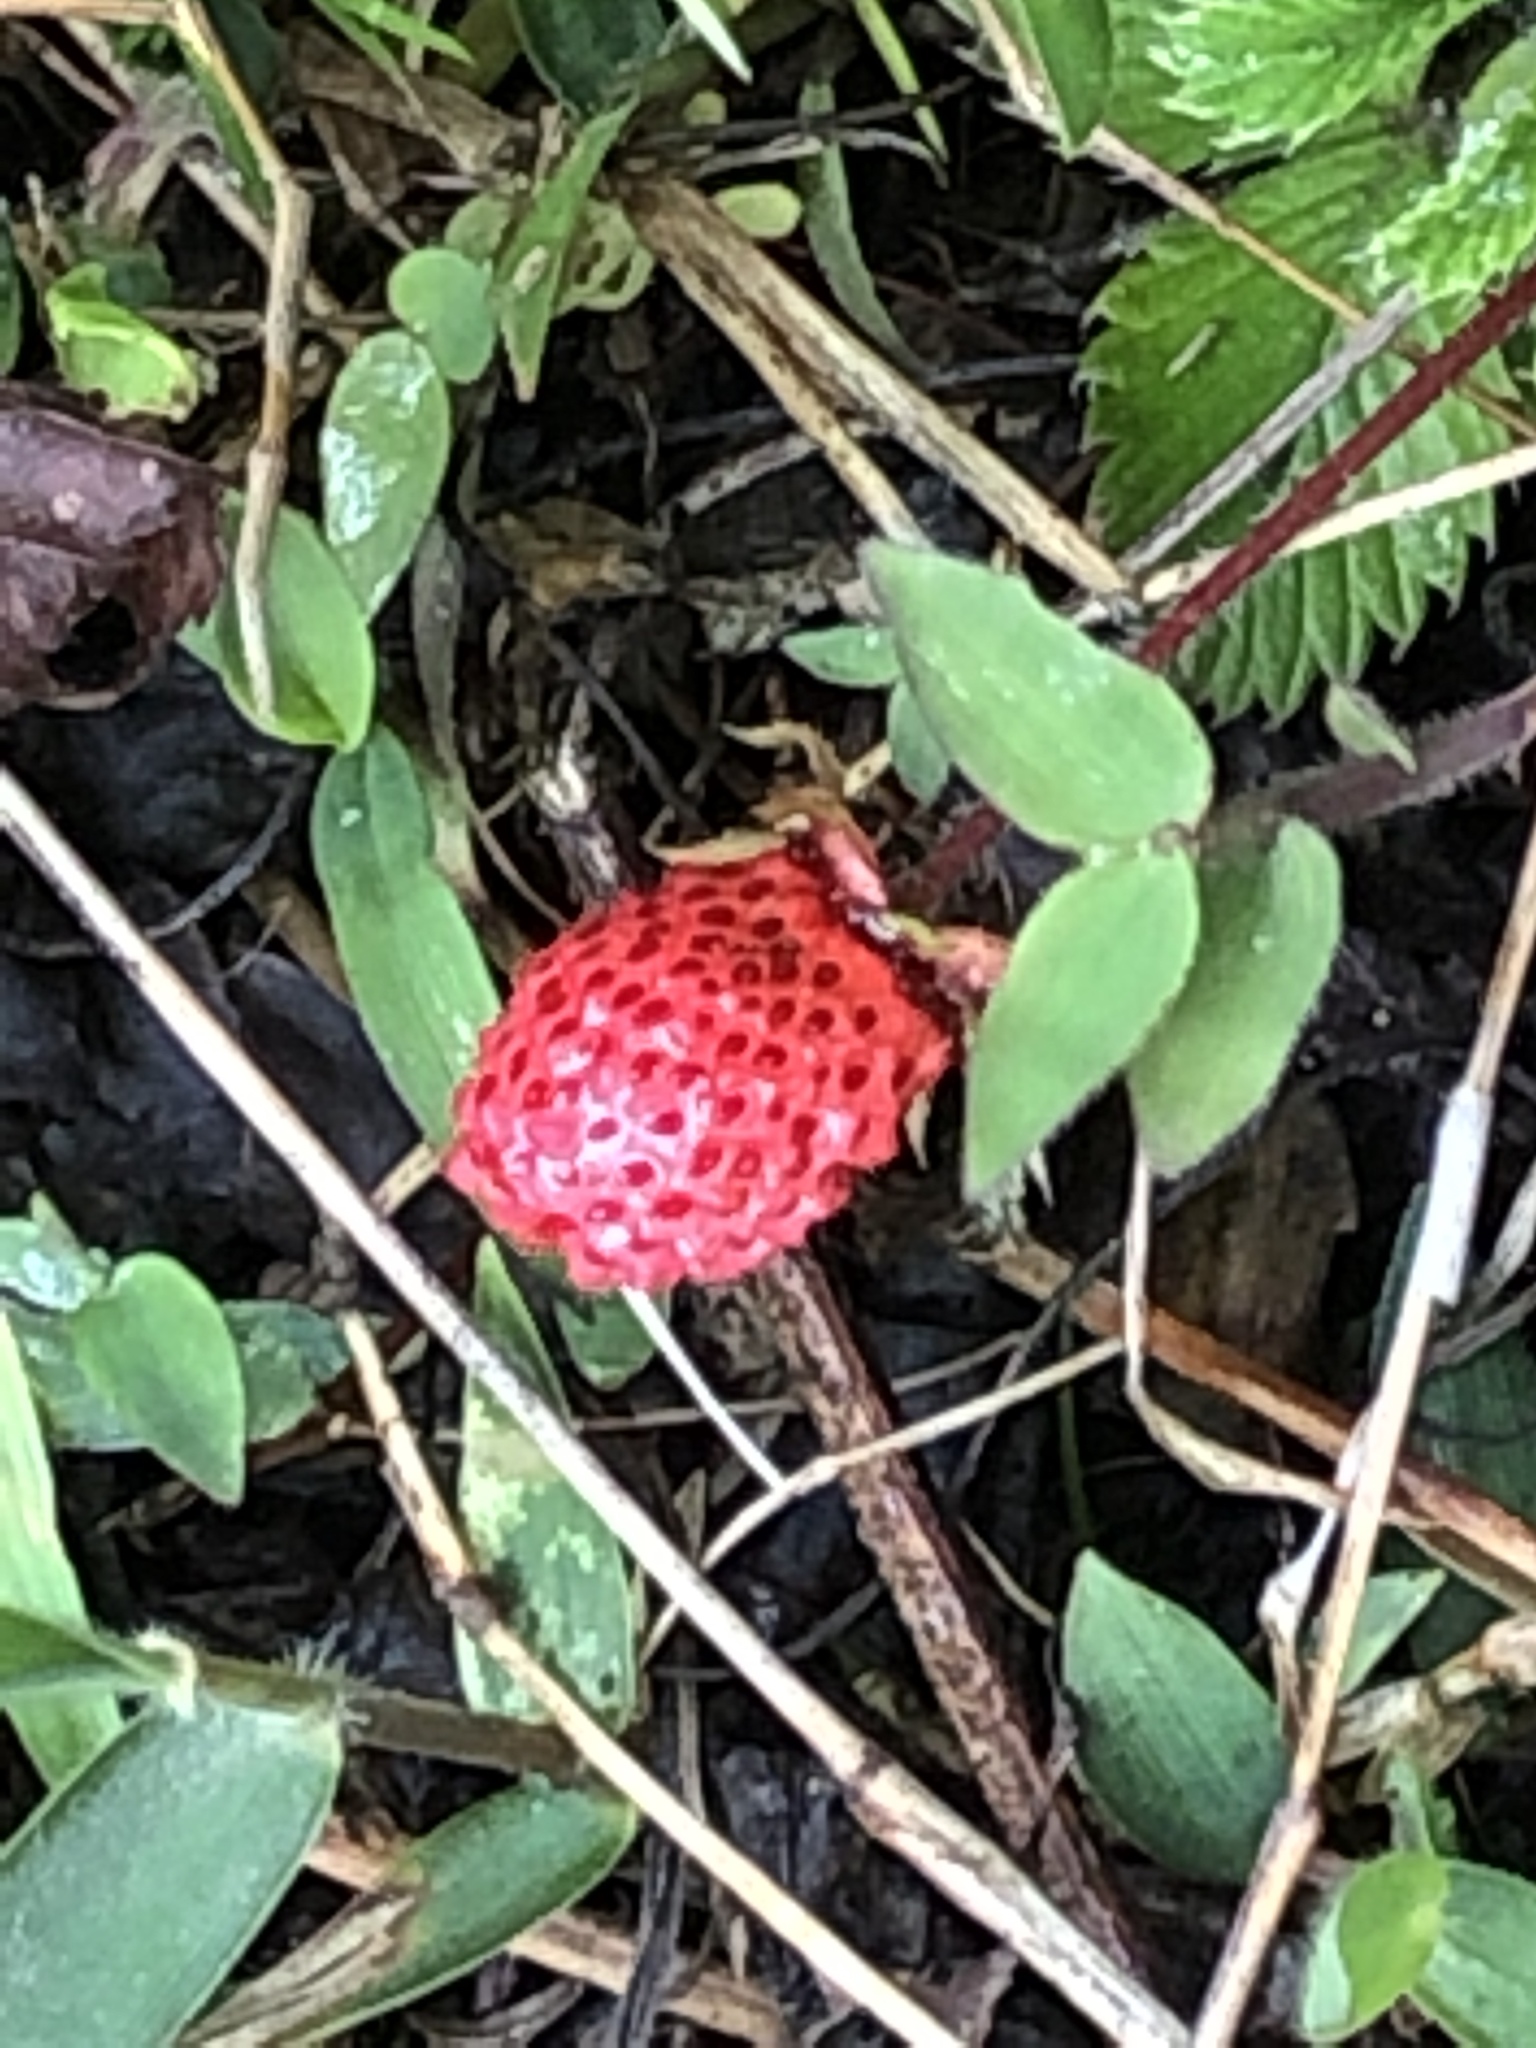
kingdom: Plantae
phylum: Tracheophyta
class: Magnoliopsida
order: Rosales
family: Rosaceae
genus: Fragaria
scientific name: Fragaria nubicola
